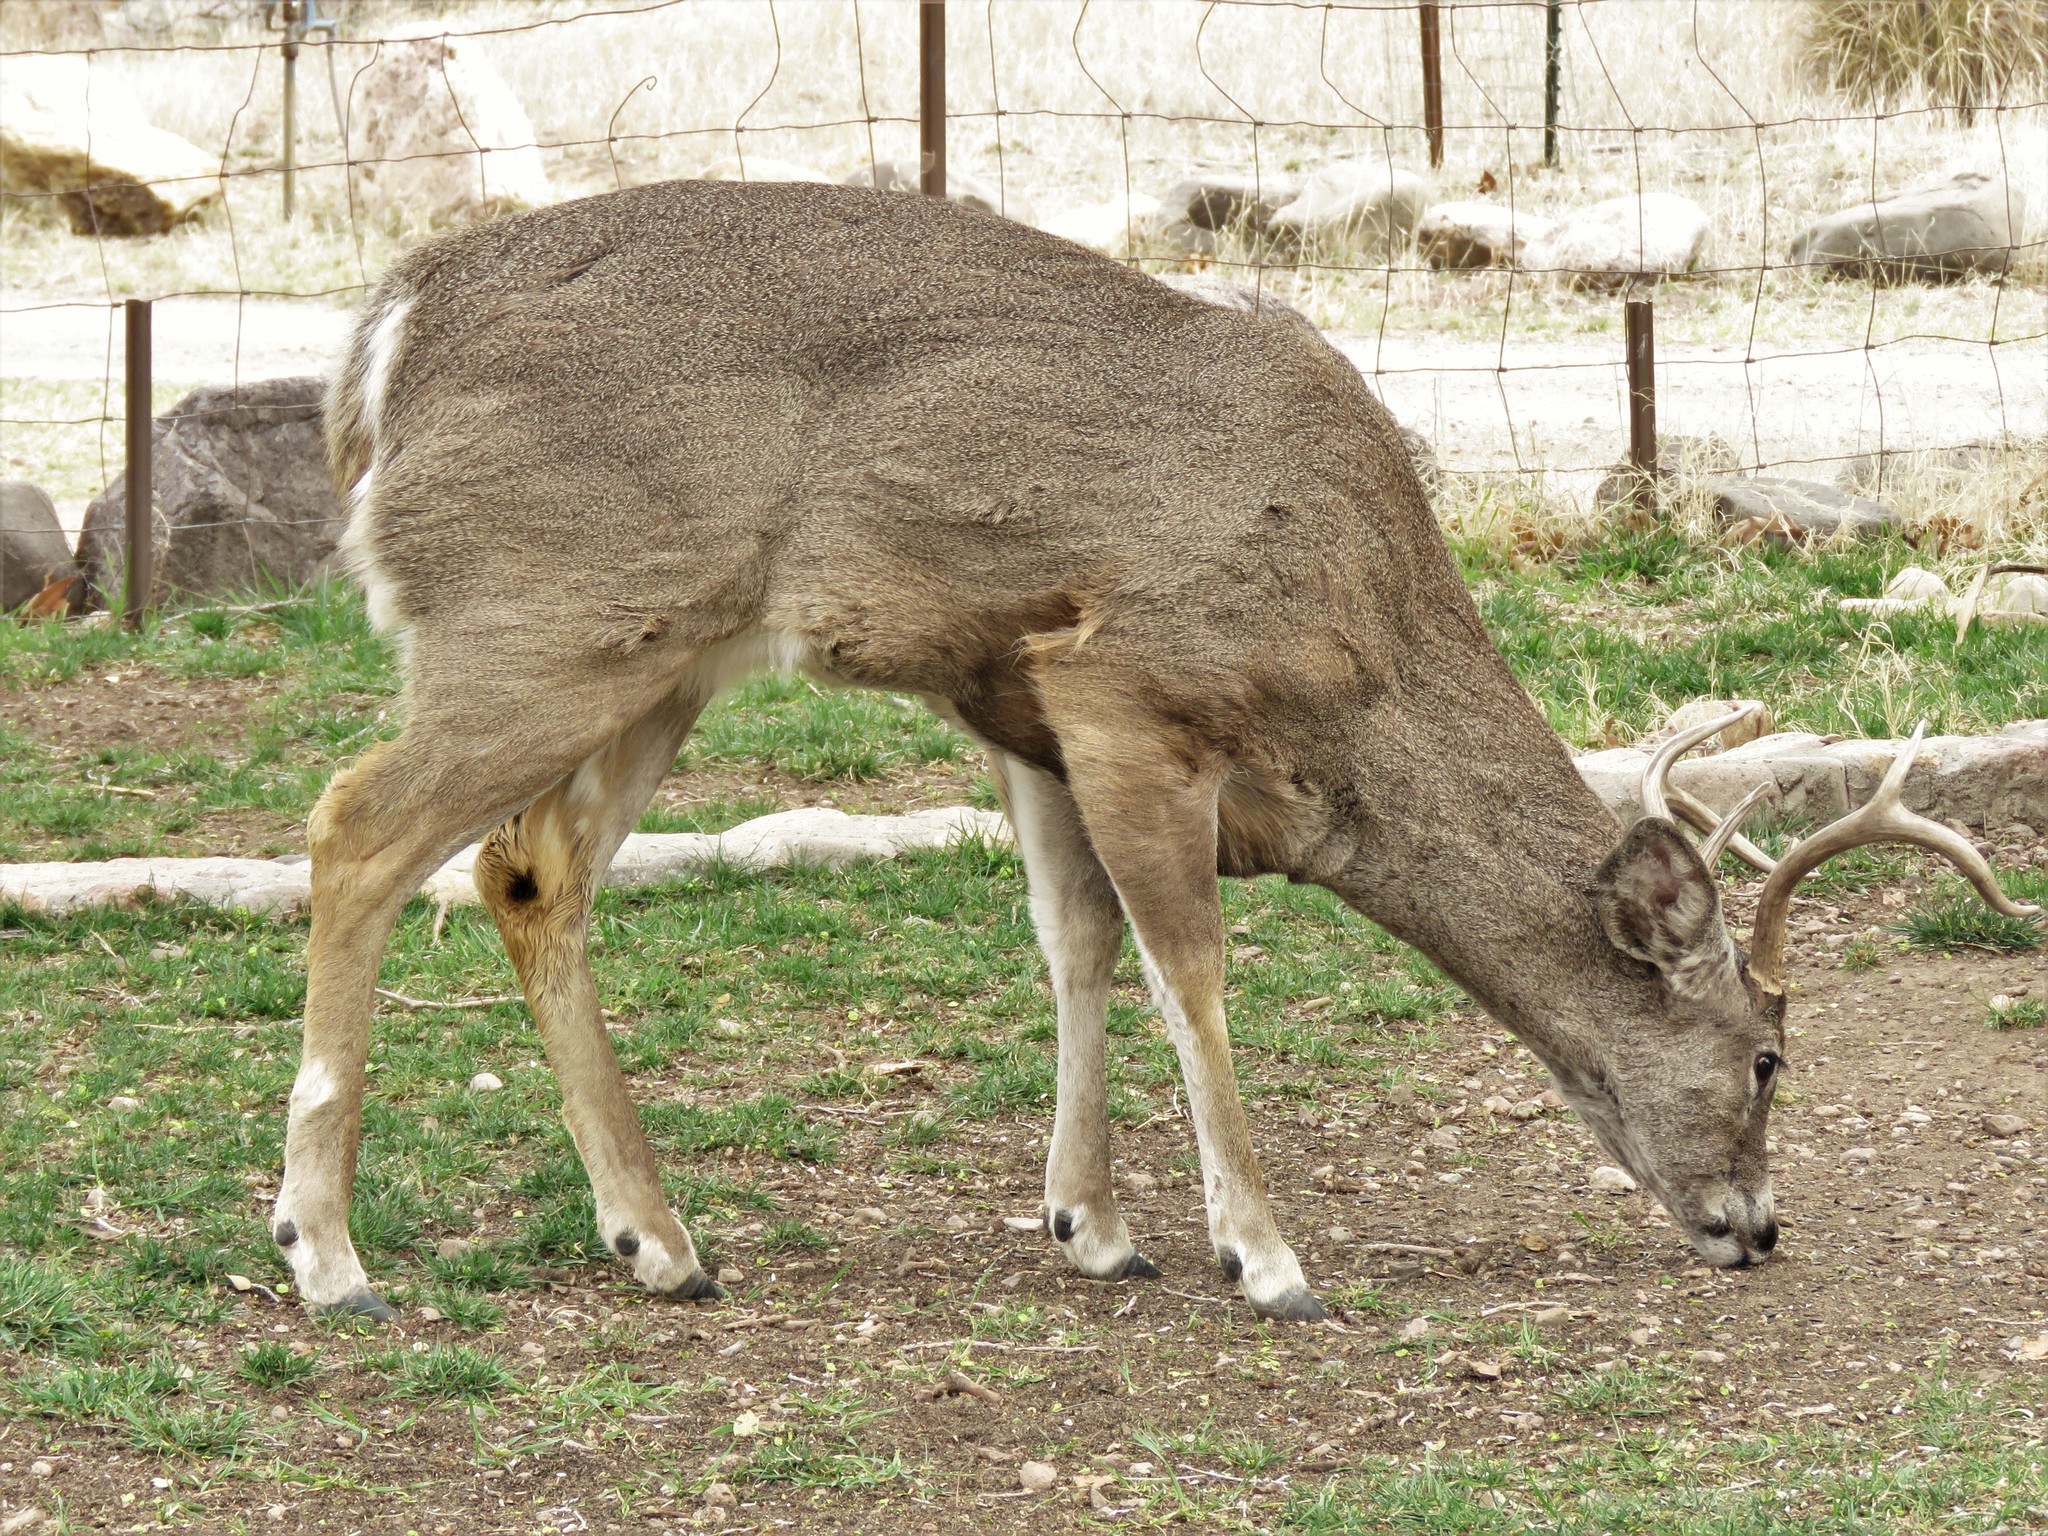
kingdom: Animalia
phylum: Chordata
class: Mammalia
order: Artiodactyla
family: Cervidae
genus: Odocoileus
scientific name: Odocoileus virginianus
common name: White-tailed deer
